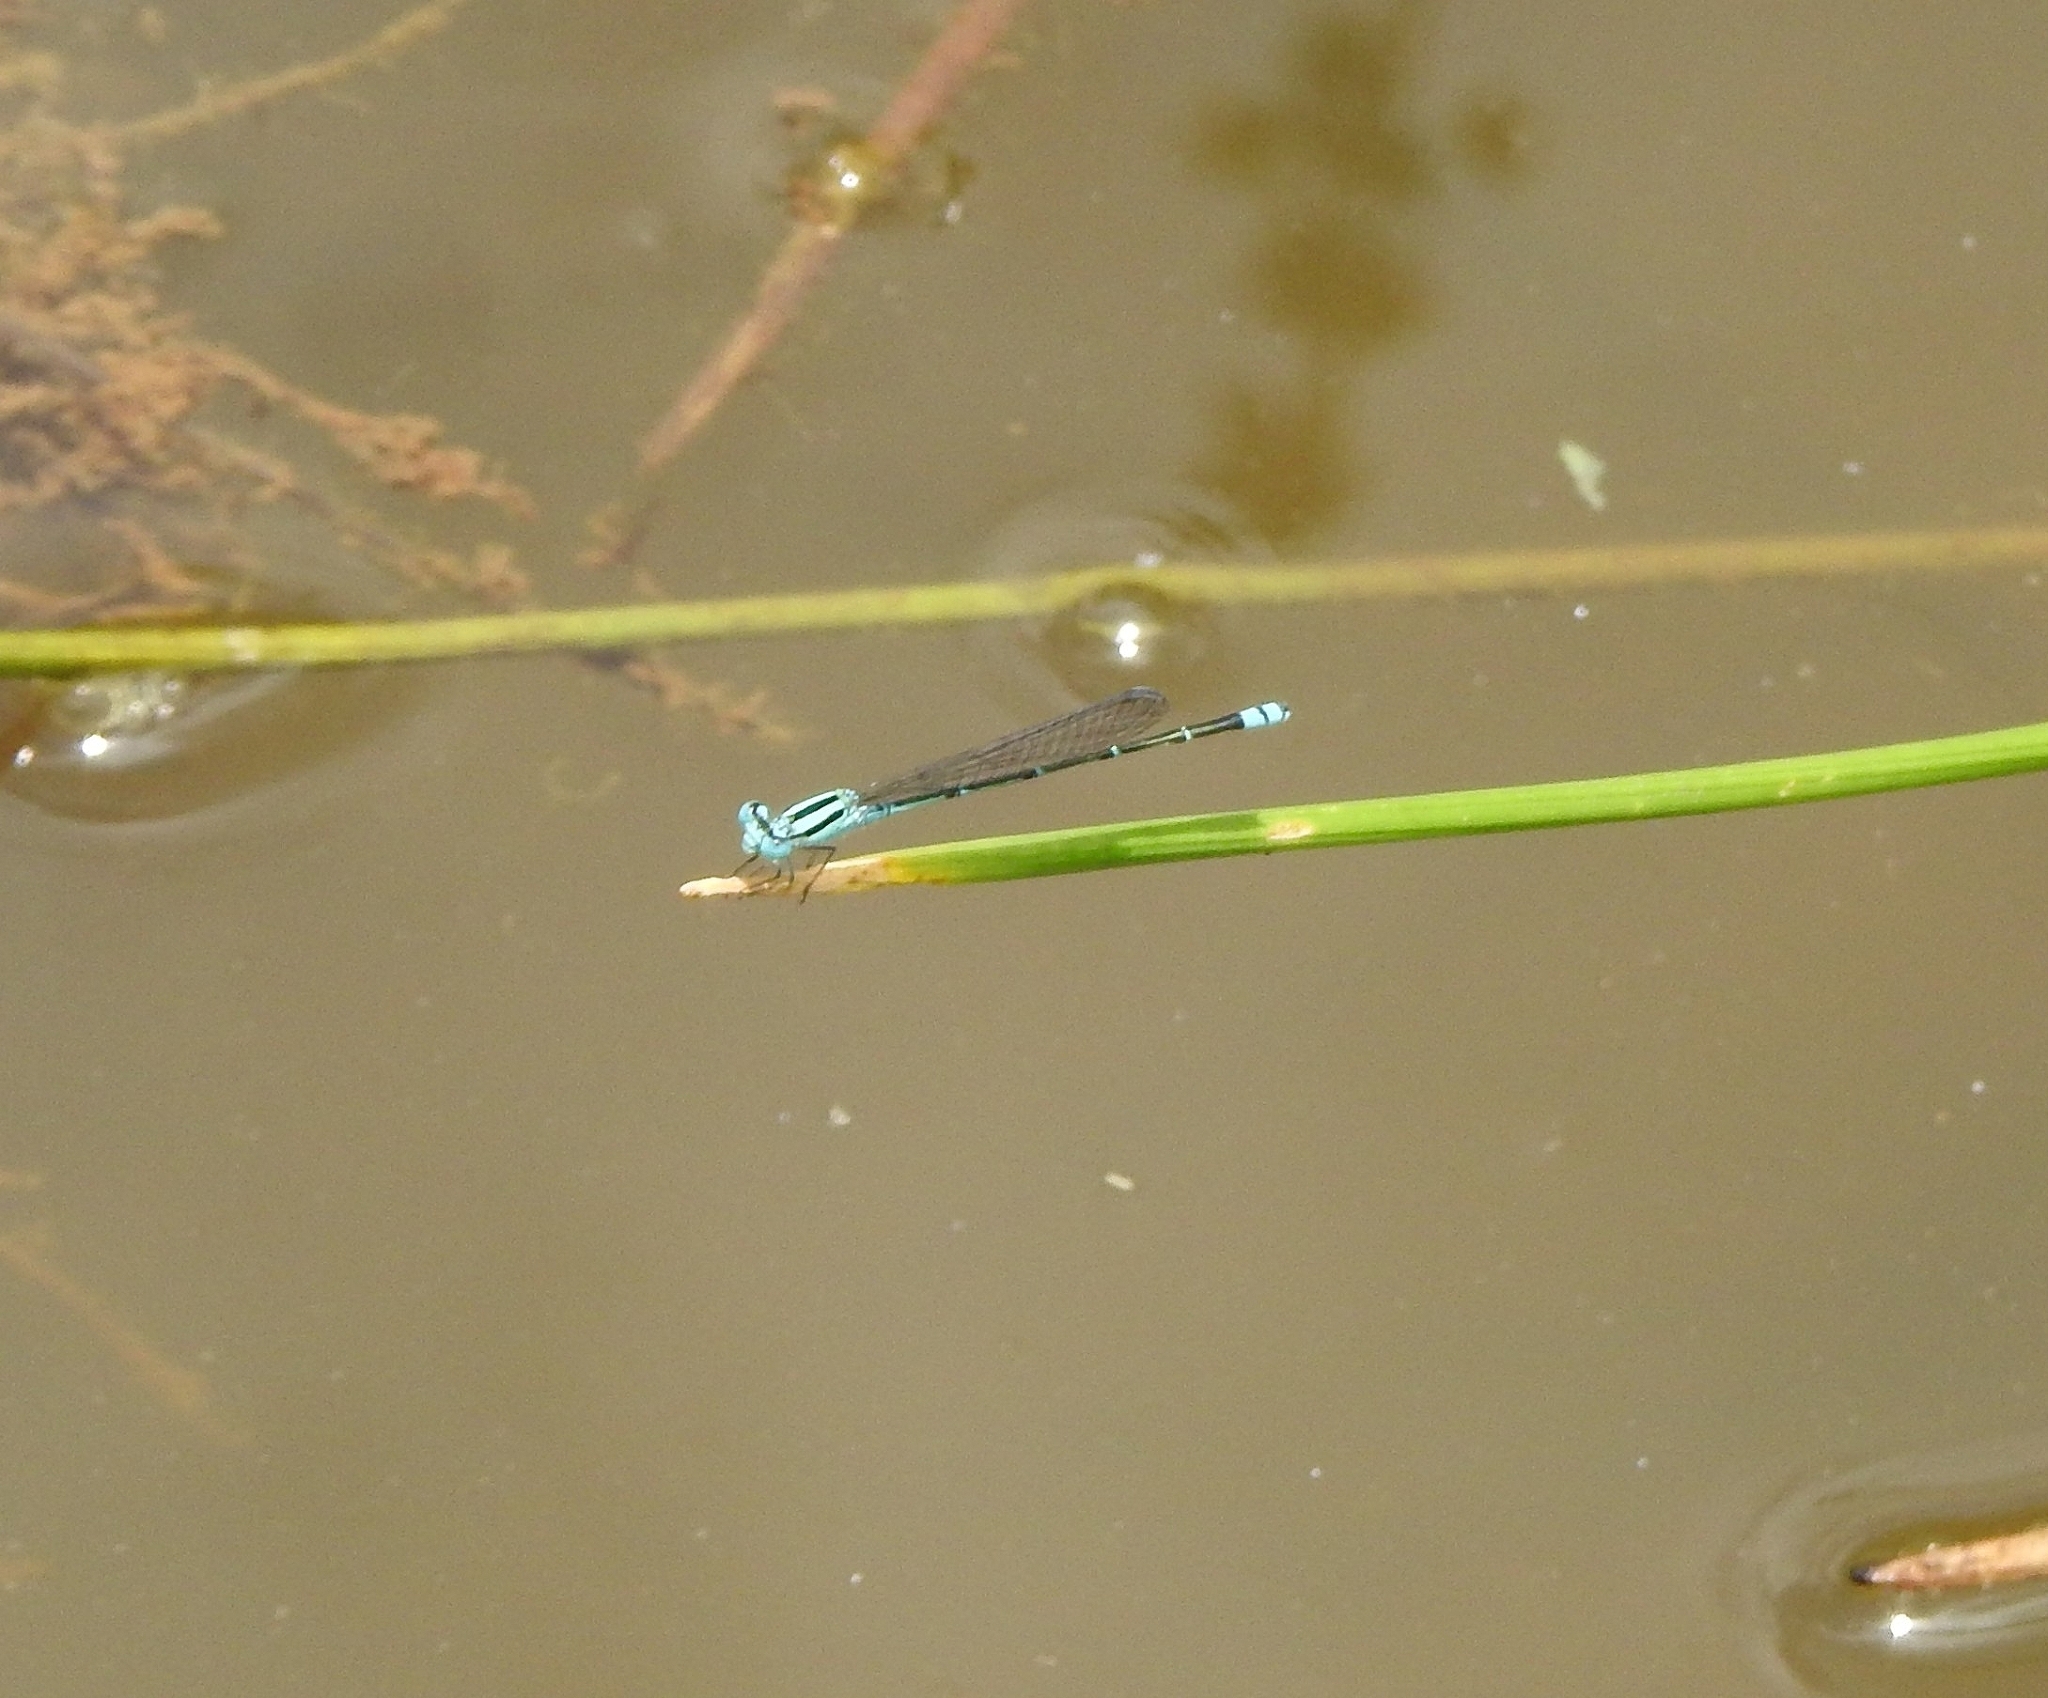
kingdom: Animalia
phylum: Arthropoda
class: Insecta
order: Odonata
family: Coenagrionidae
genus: Pseudagrion
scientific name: Pseudagrion microcephalum
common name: Blue riverdamsel
